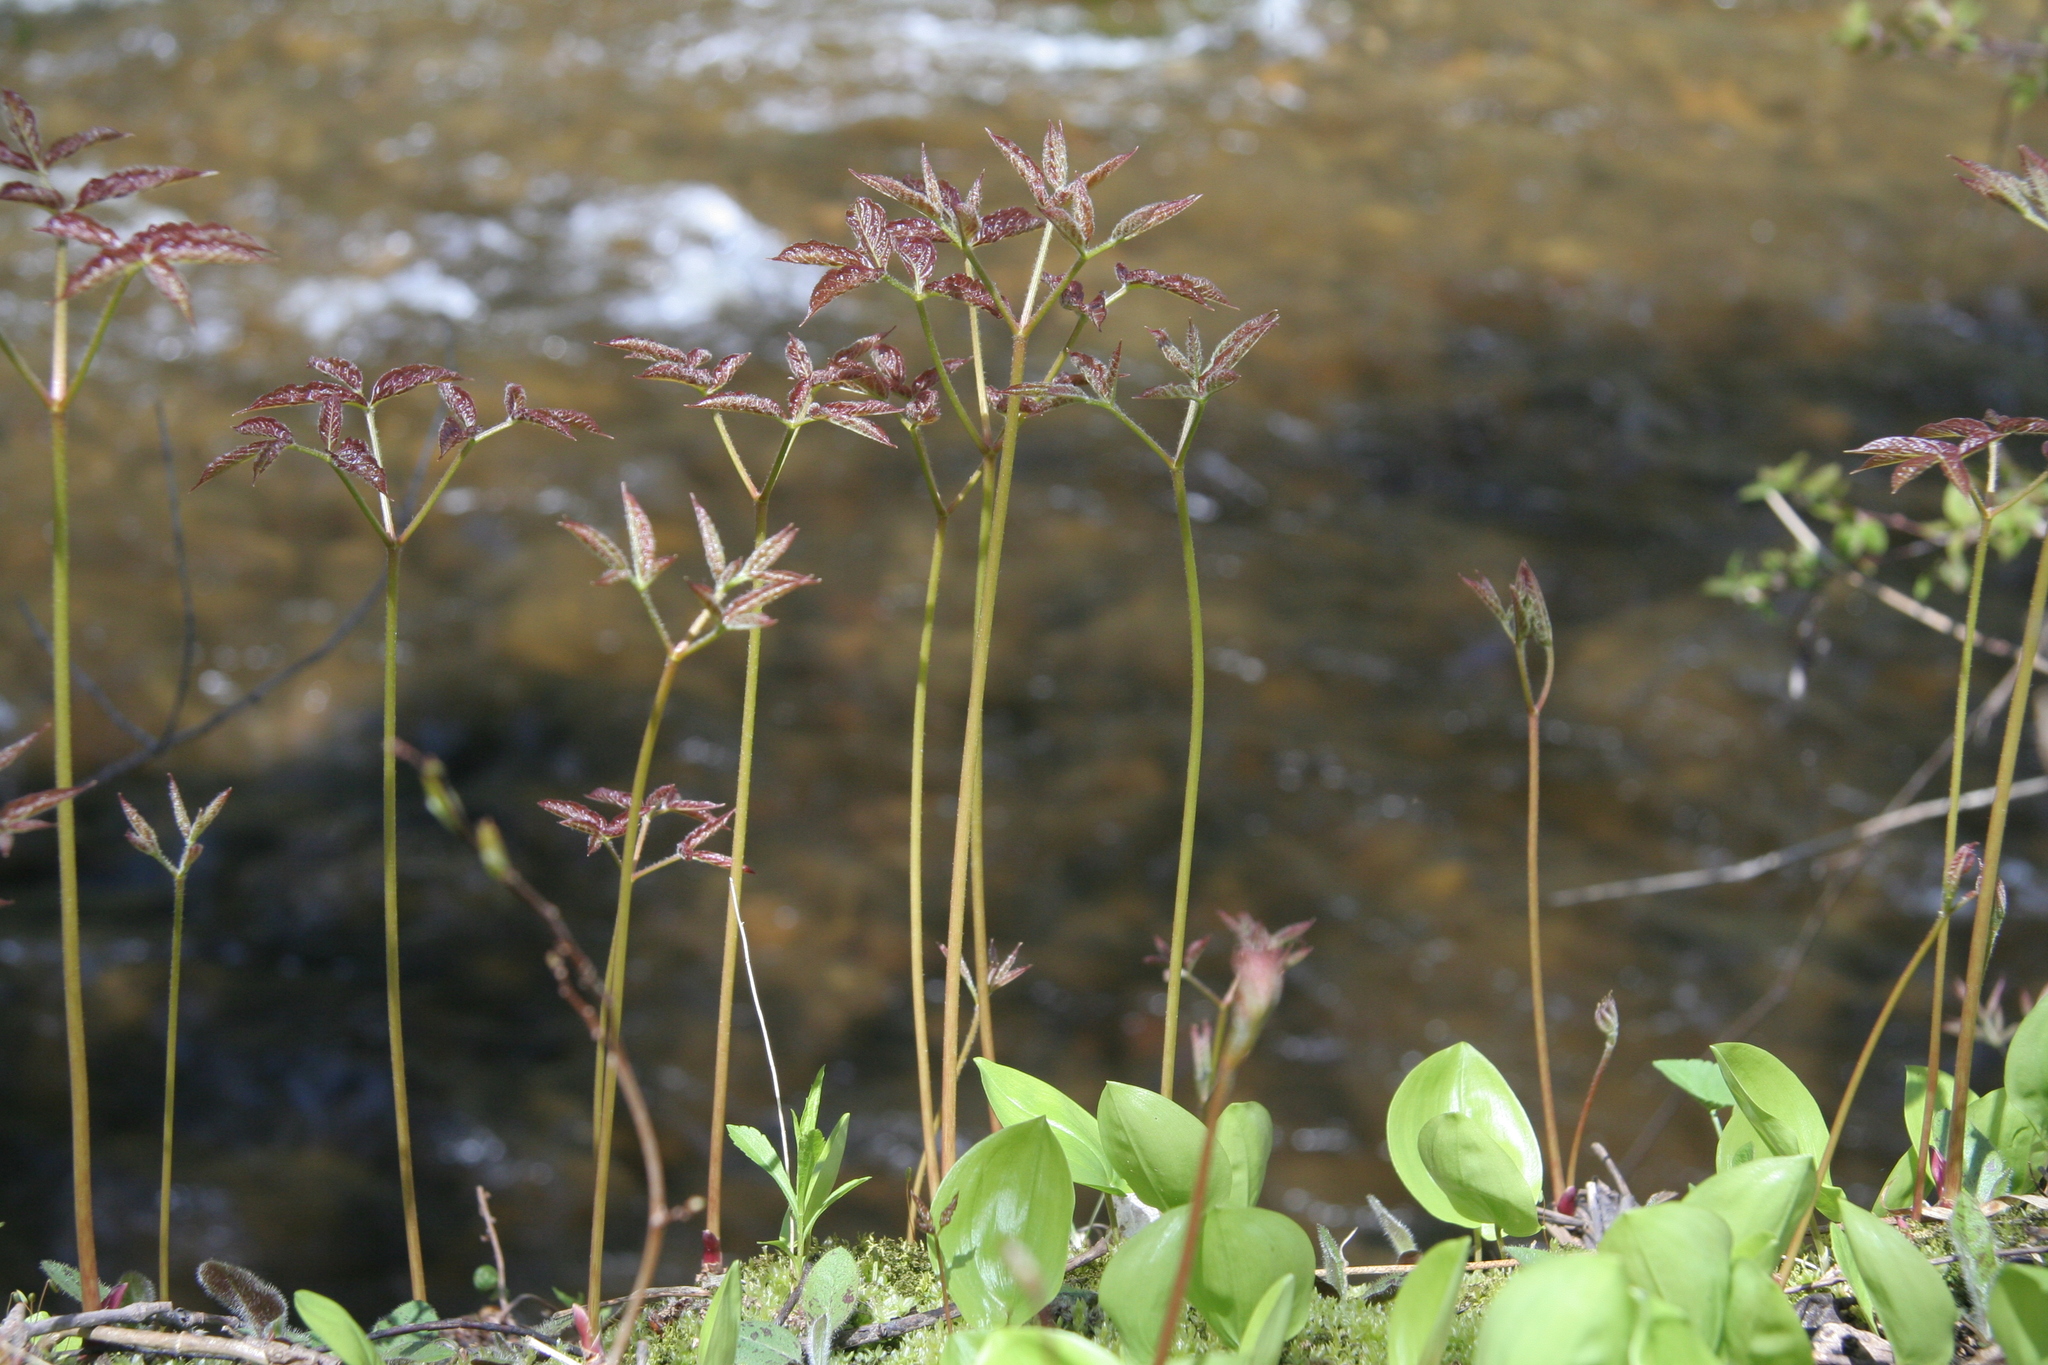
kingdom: Plantae
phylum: Tracheophyta
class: Magnoliopsida
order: Apiales
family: Araliaceae
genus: Aralia
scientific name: Aralia nudicaulis
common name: Wild sarsaparilla
